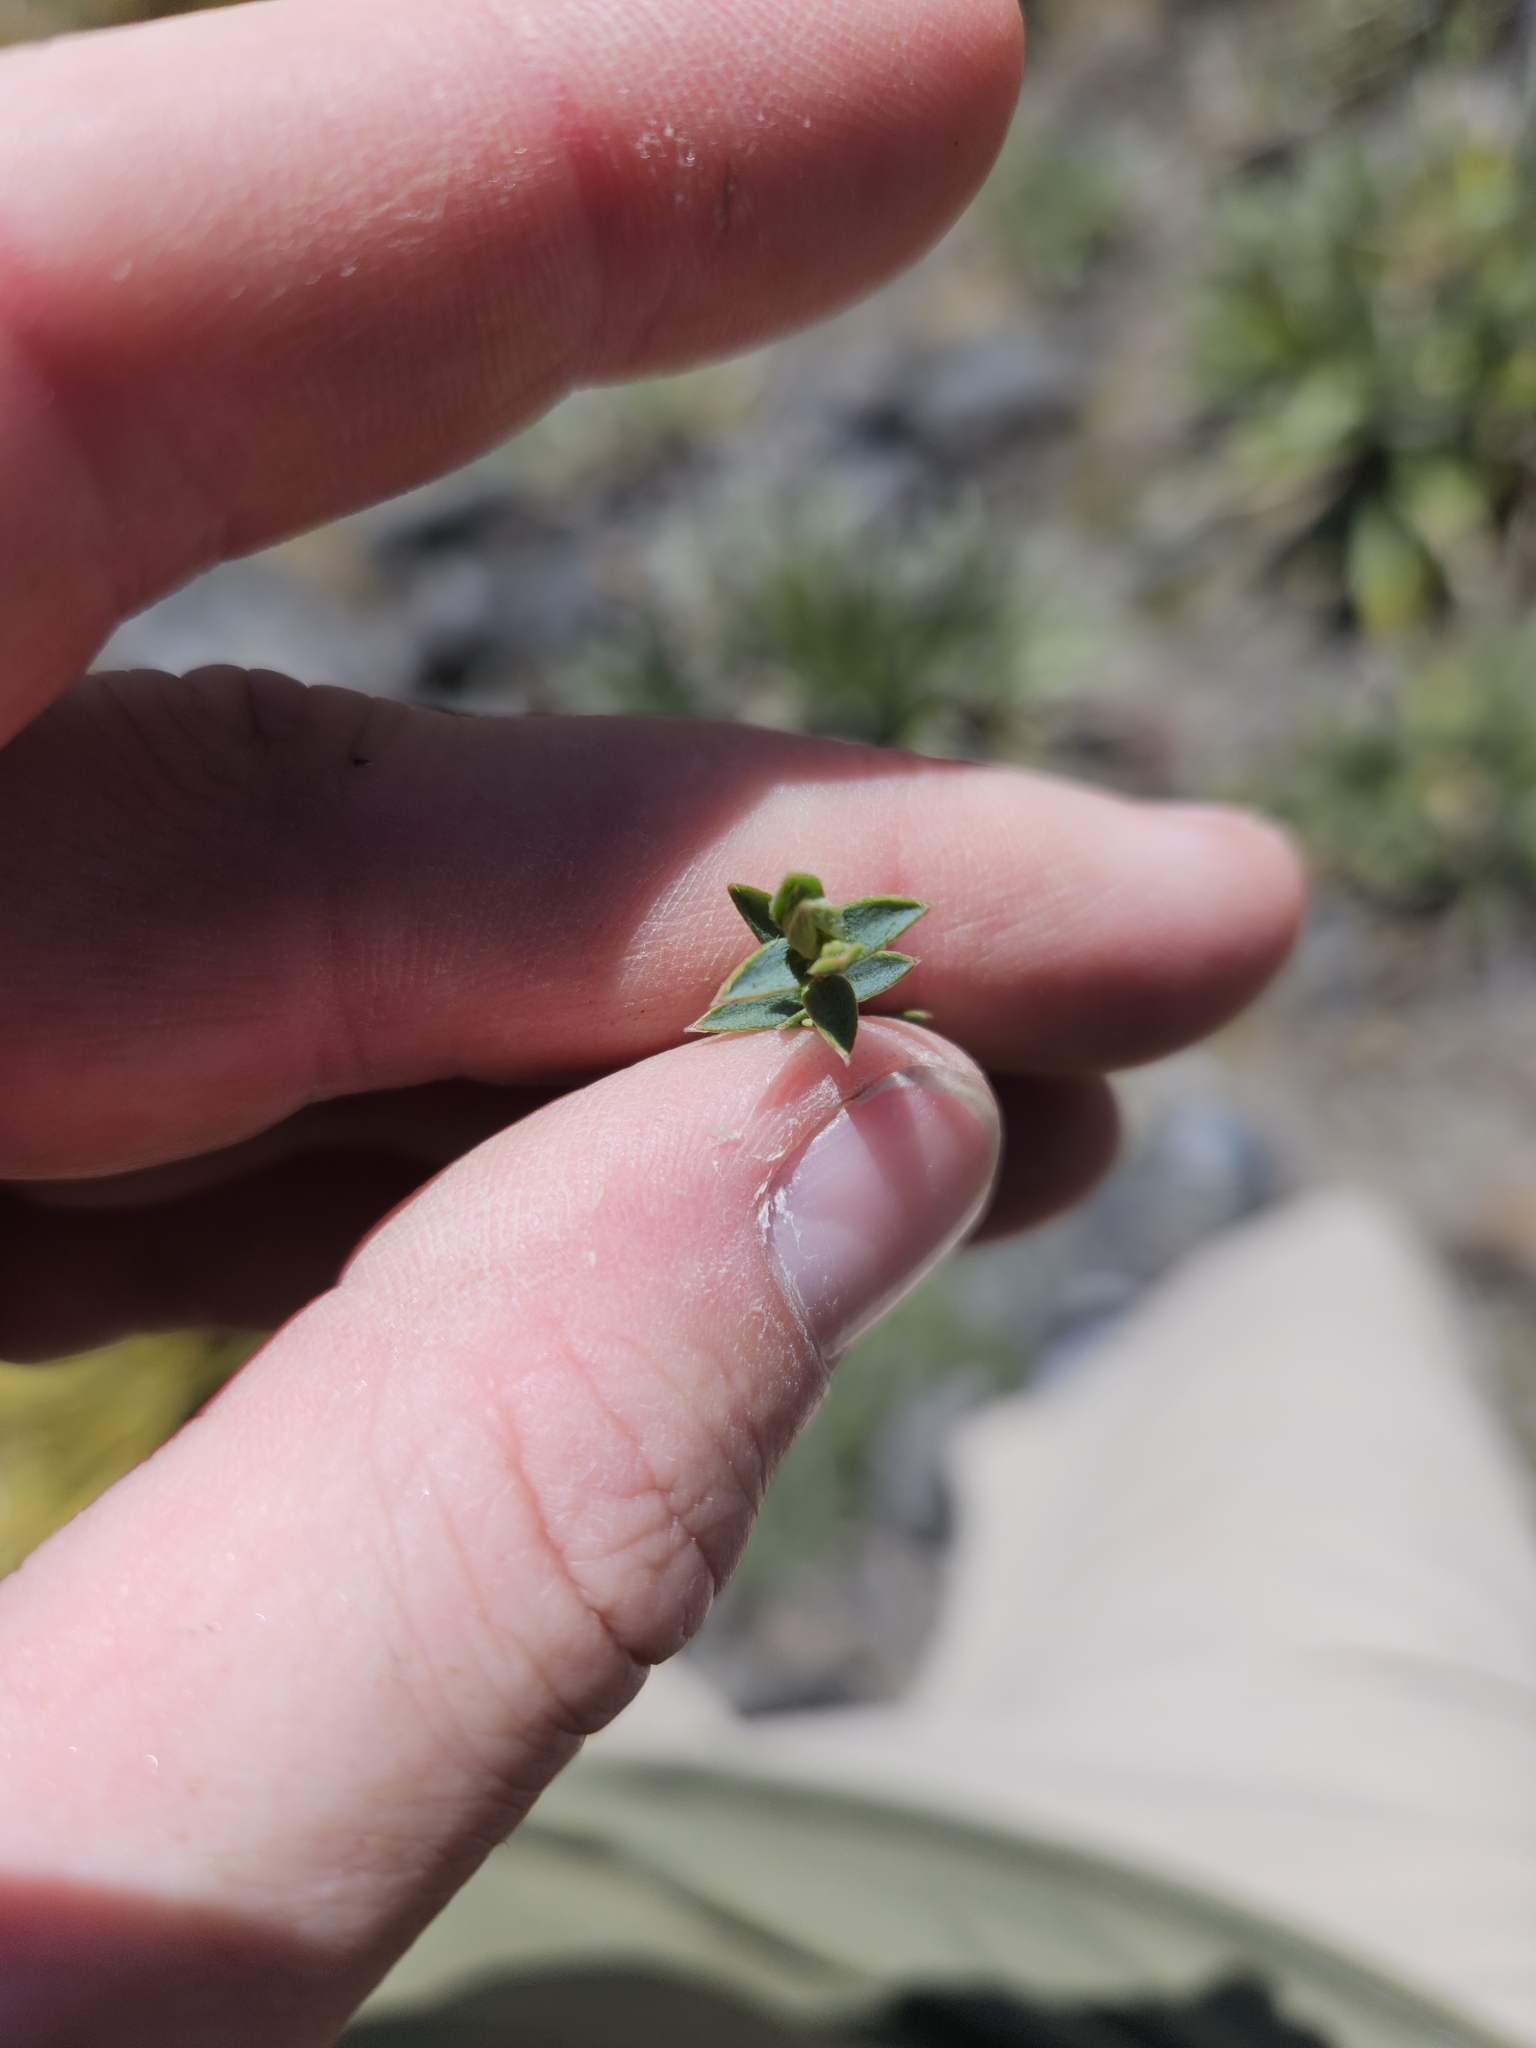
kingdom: Plantae
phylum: Tracheophyta
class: Magnoliopsida
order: Malvales
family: Thymelaeaceae
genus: Pimelea
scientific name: Pimelea oreophila
